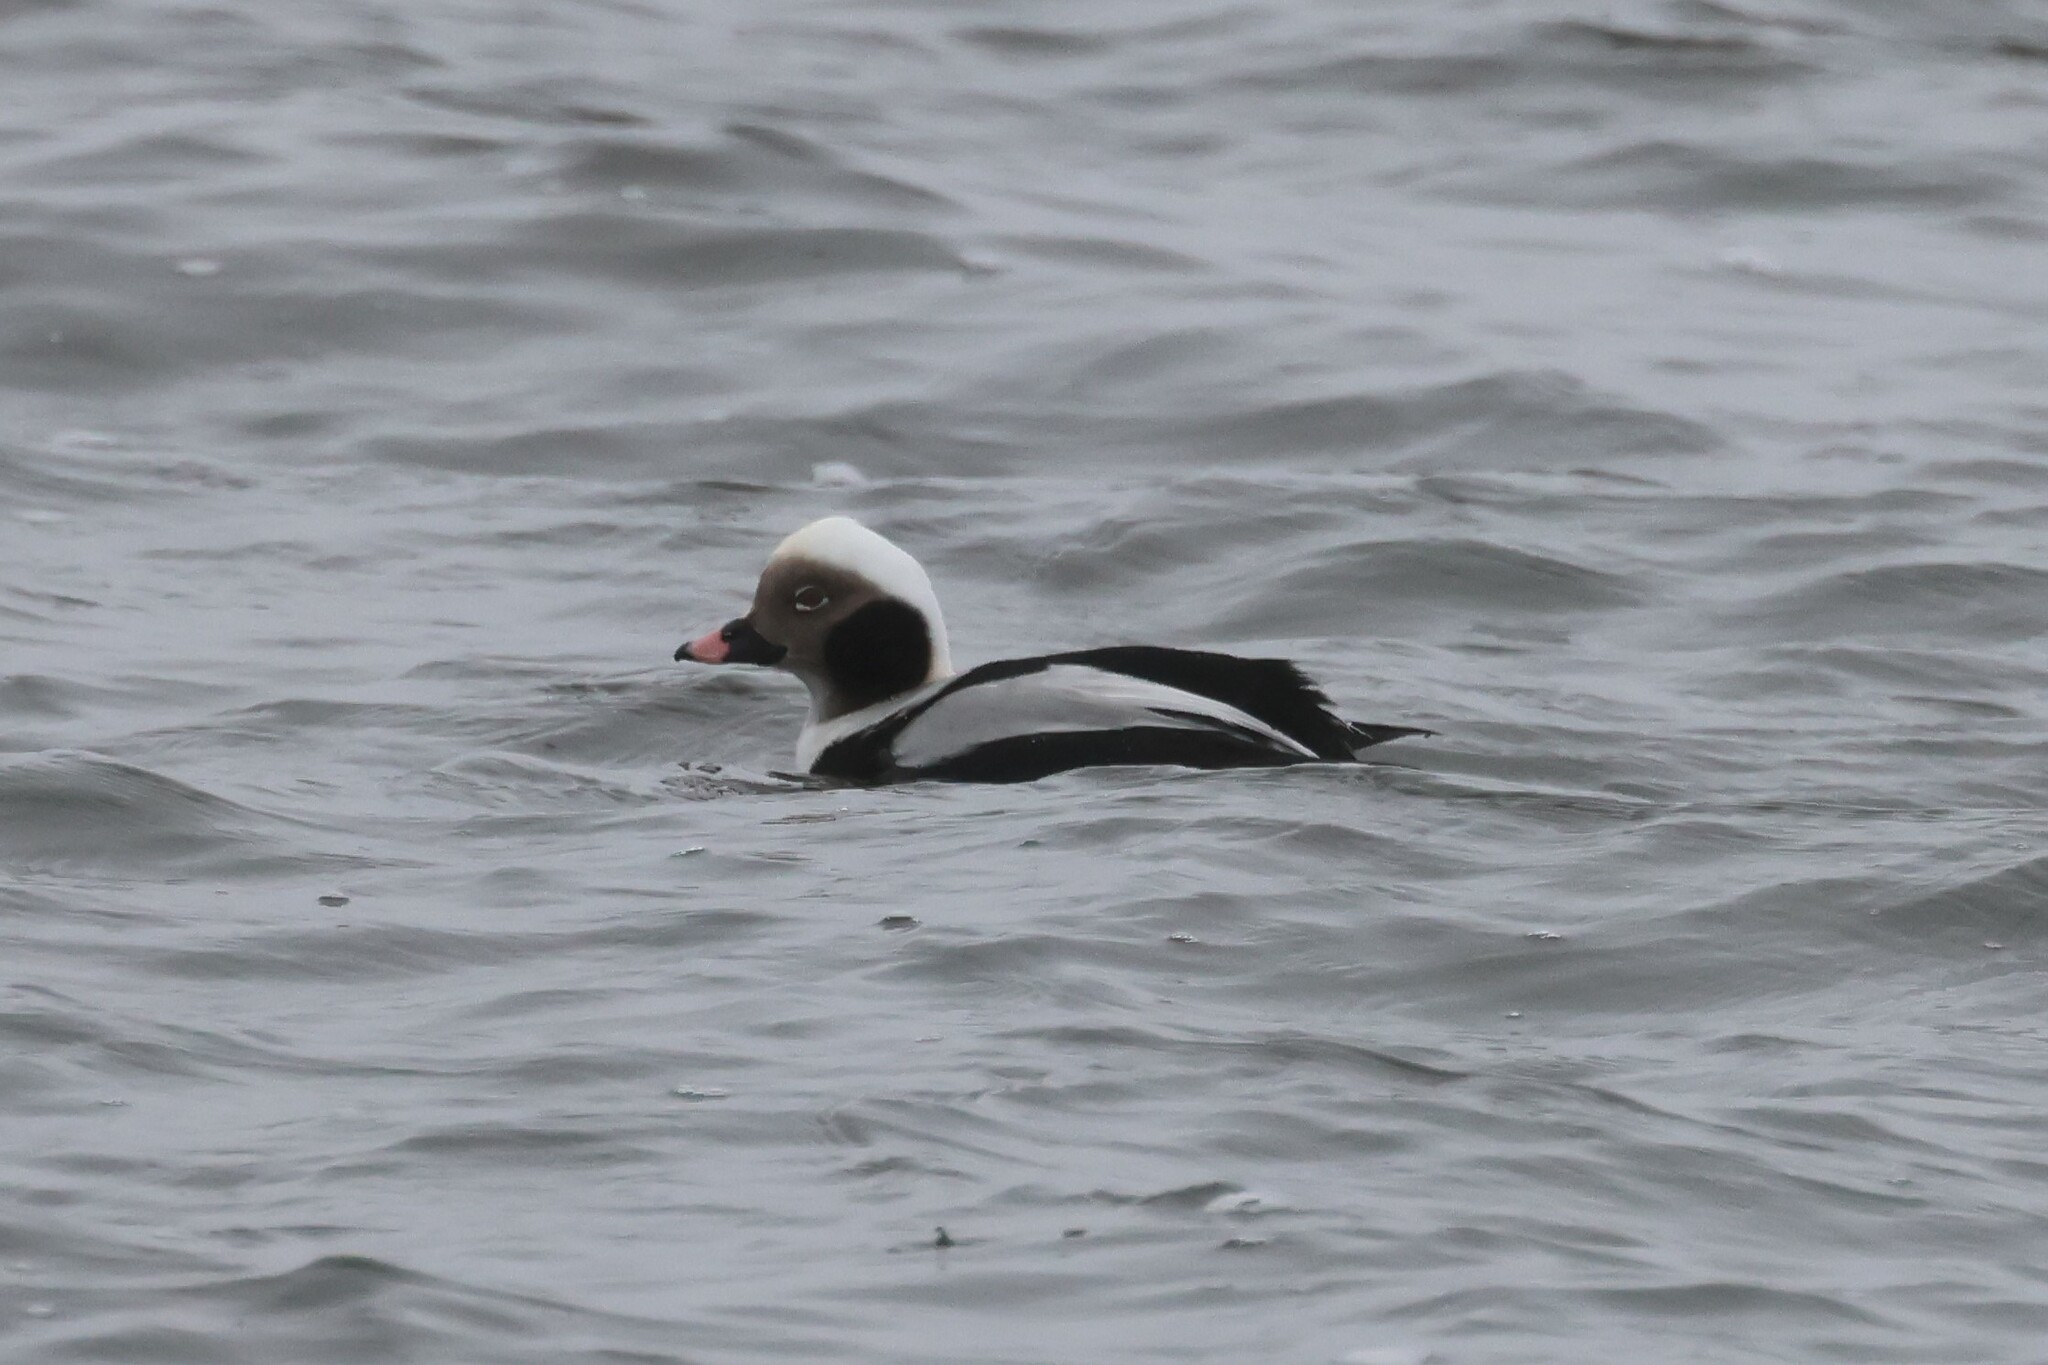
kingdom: Animalia
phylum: Chordata
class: Aves
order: Anseriformes
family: Anatidae
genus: Clangula
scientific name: Clangula hyemalis
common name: Long-tailed duck
